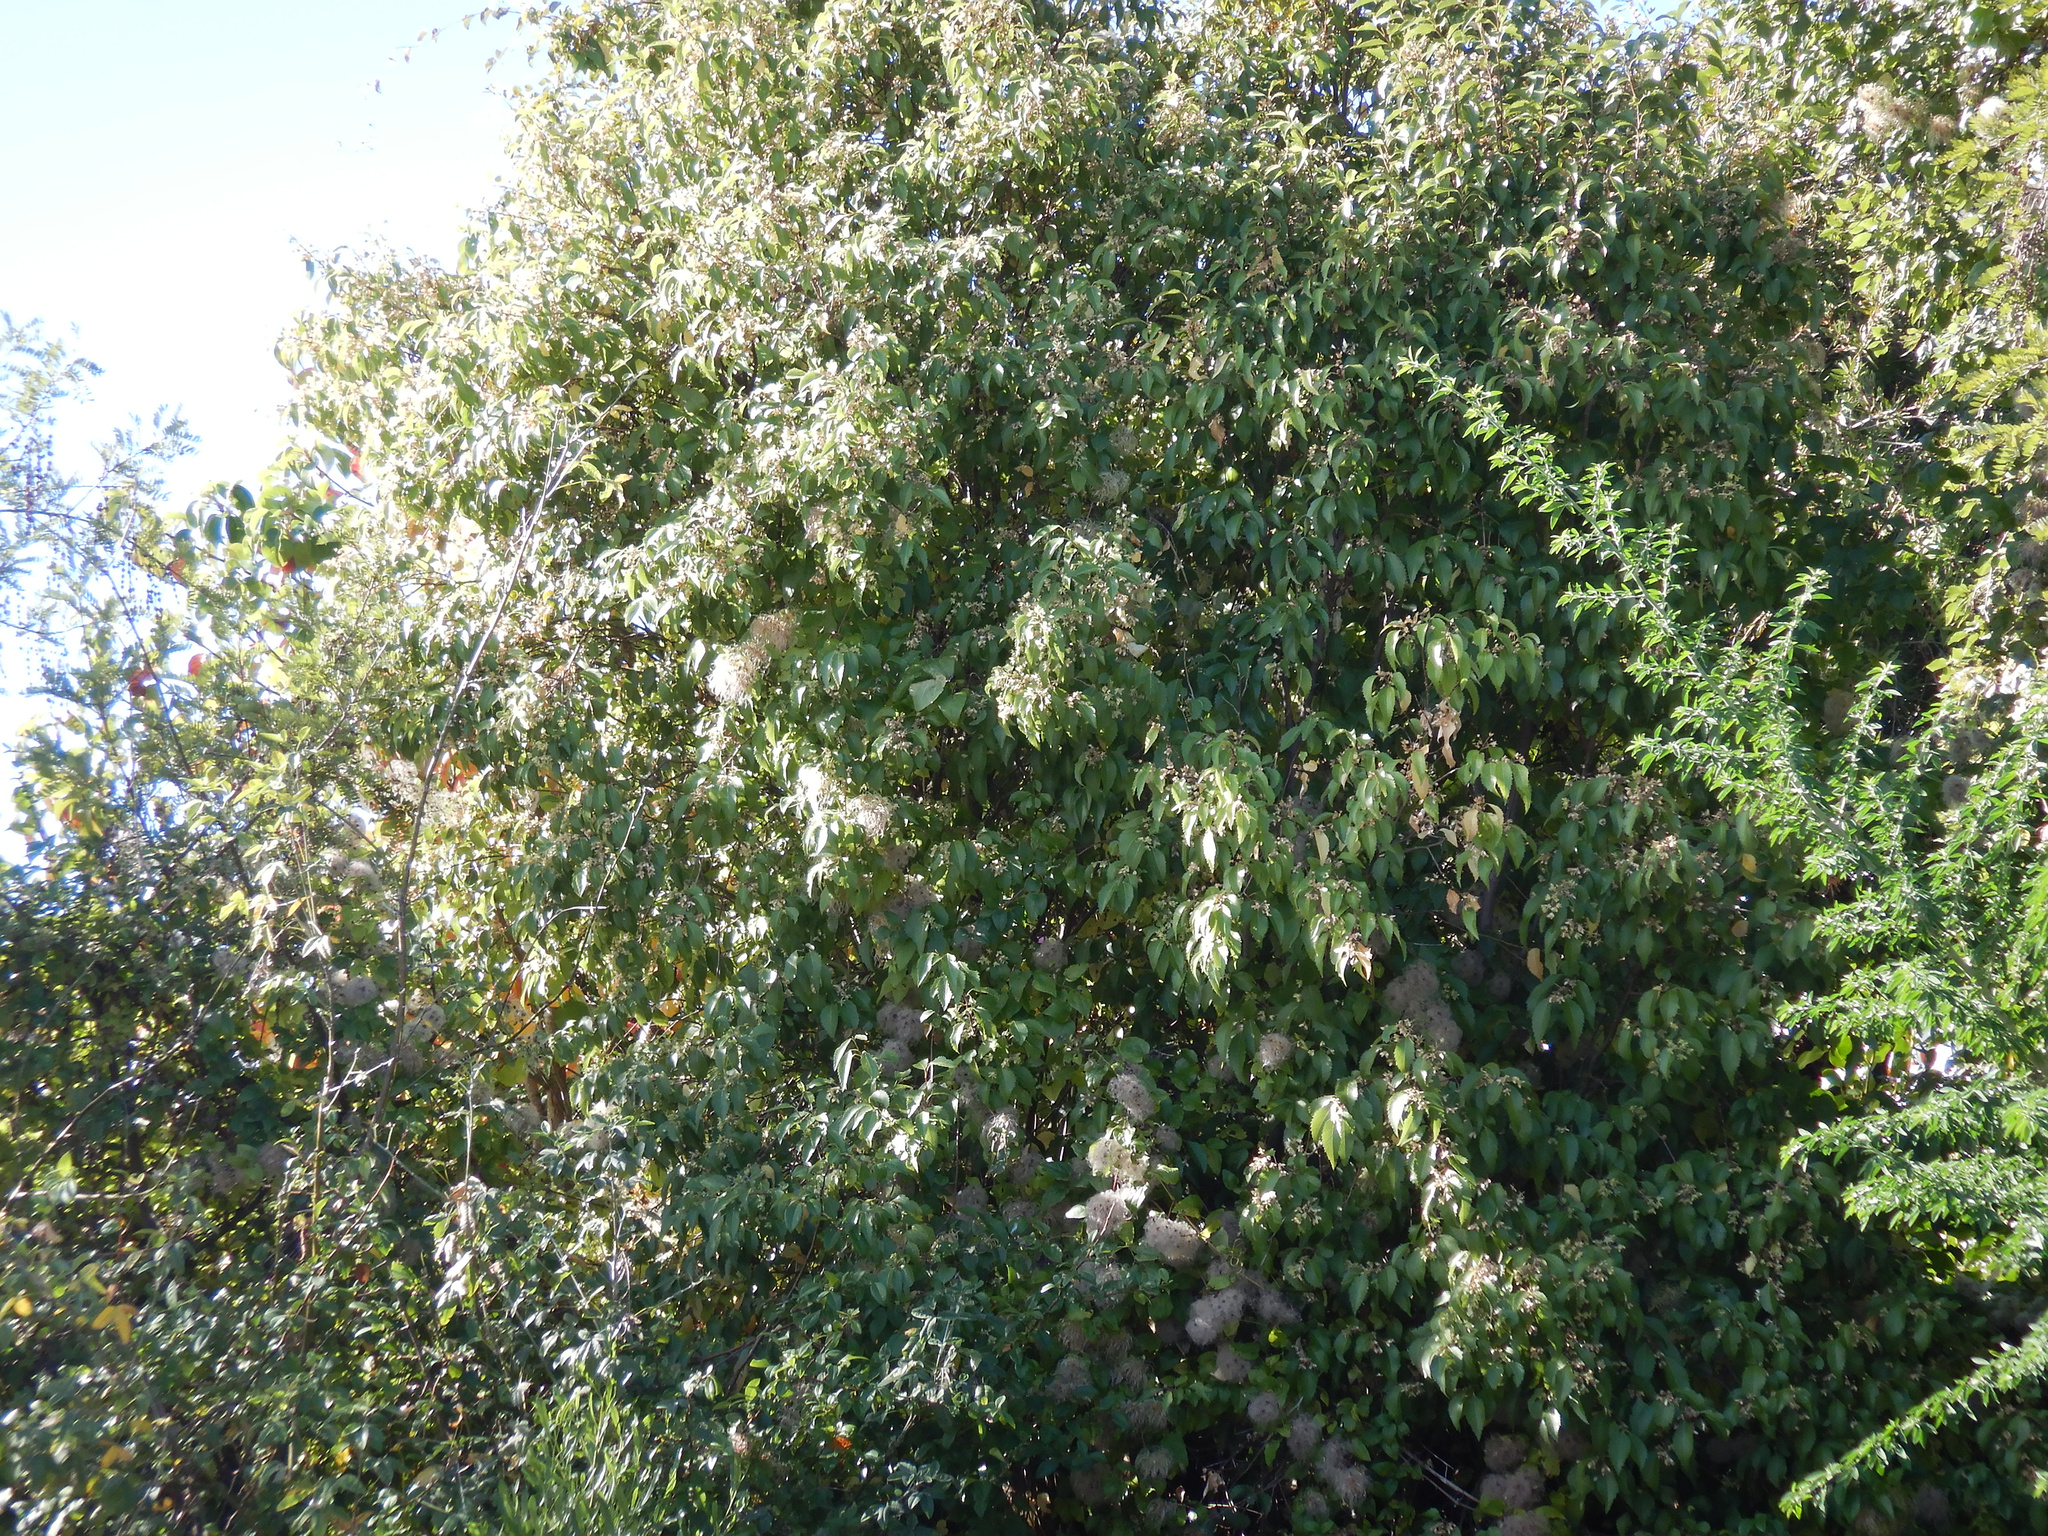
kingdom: Plantae
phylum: Tracheophyta
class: Magnoliopsida
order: Ranunculales
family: Ranunculaceae
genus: Clematis
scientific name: Clematis vitalba
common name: Evergreen clematis
